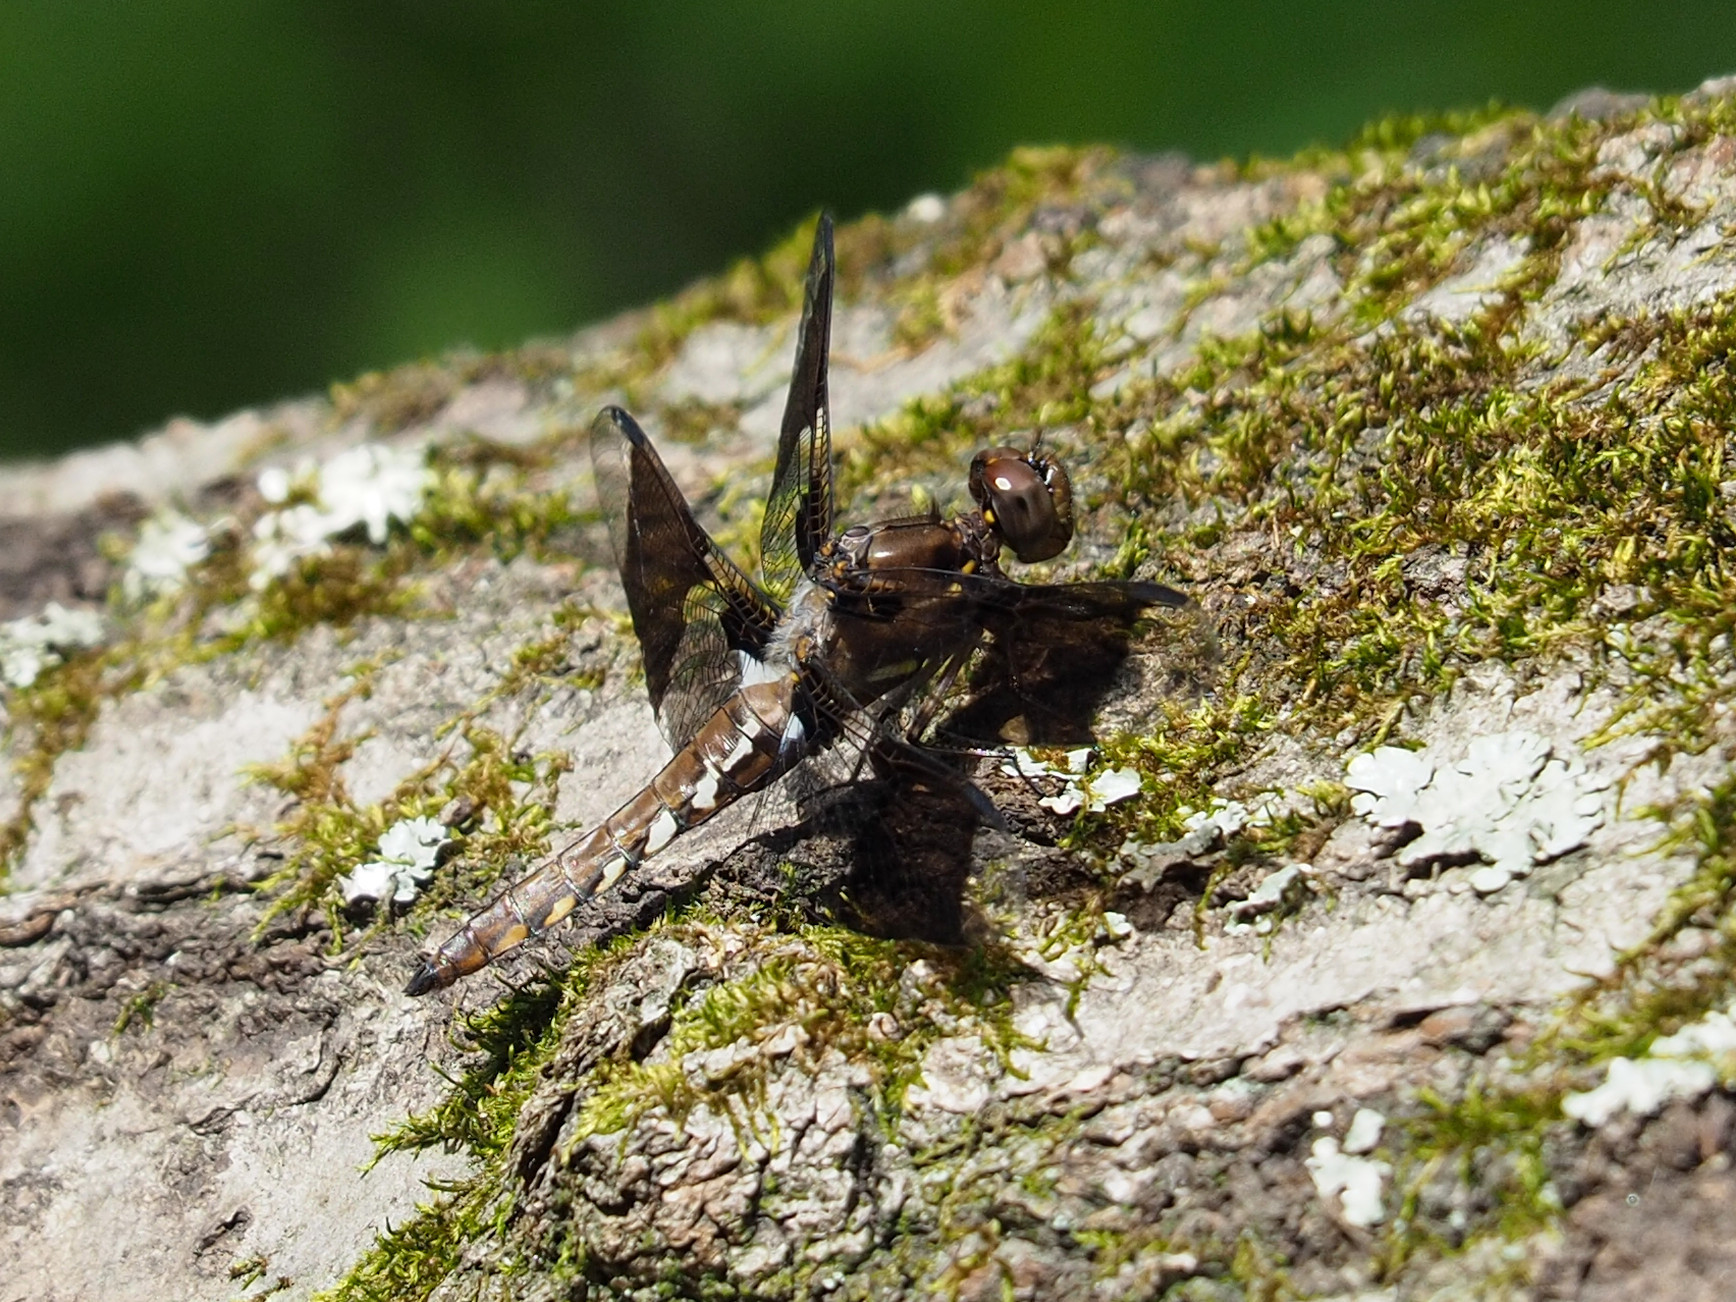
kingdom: Animalia
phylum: Arthropoda
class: Insecta
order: Odonata
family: Libellulidae
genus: Plathemis
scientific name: Plathemis lydia
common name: Common whitetail
